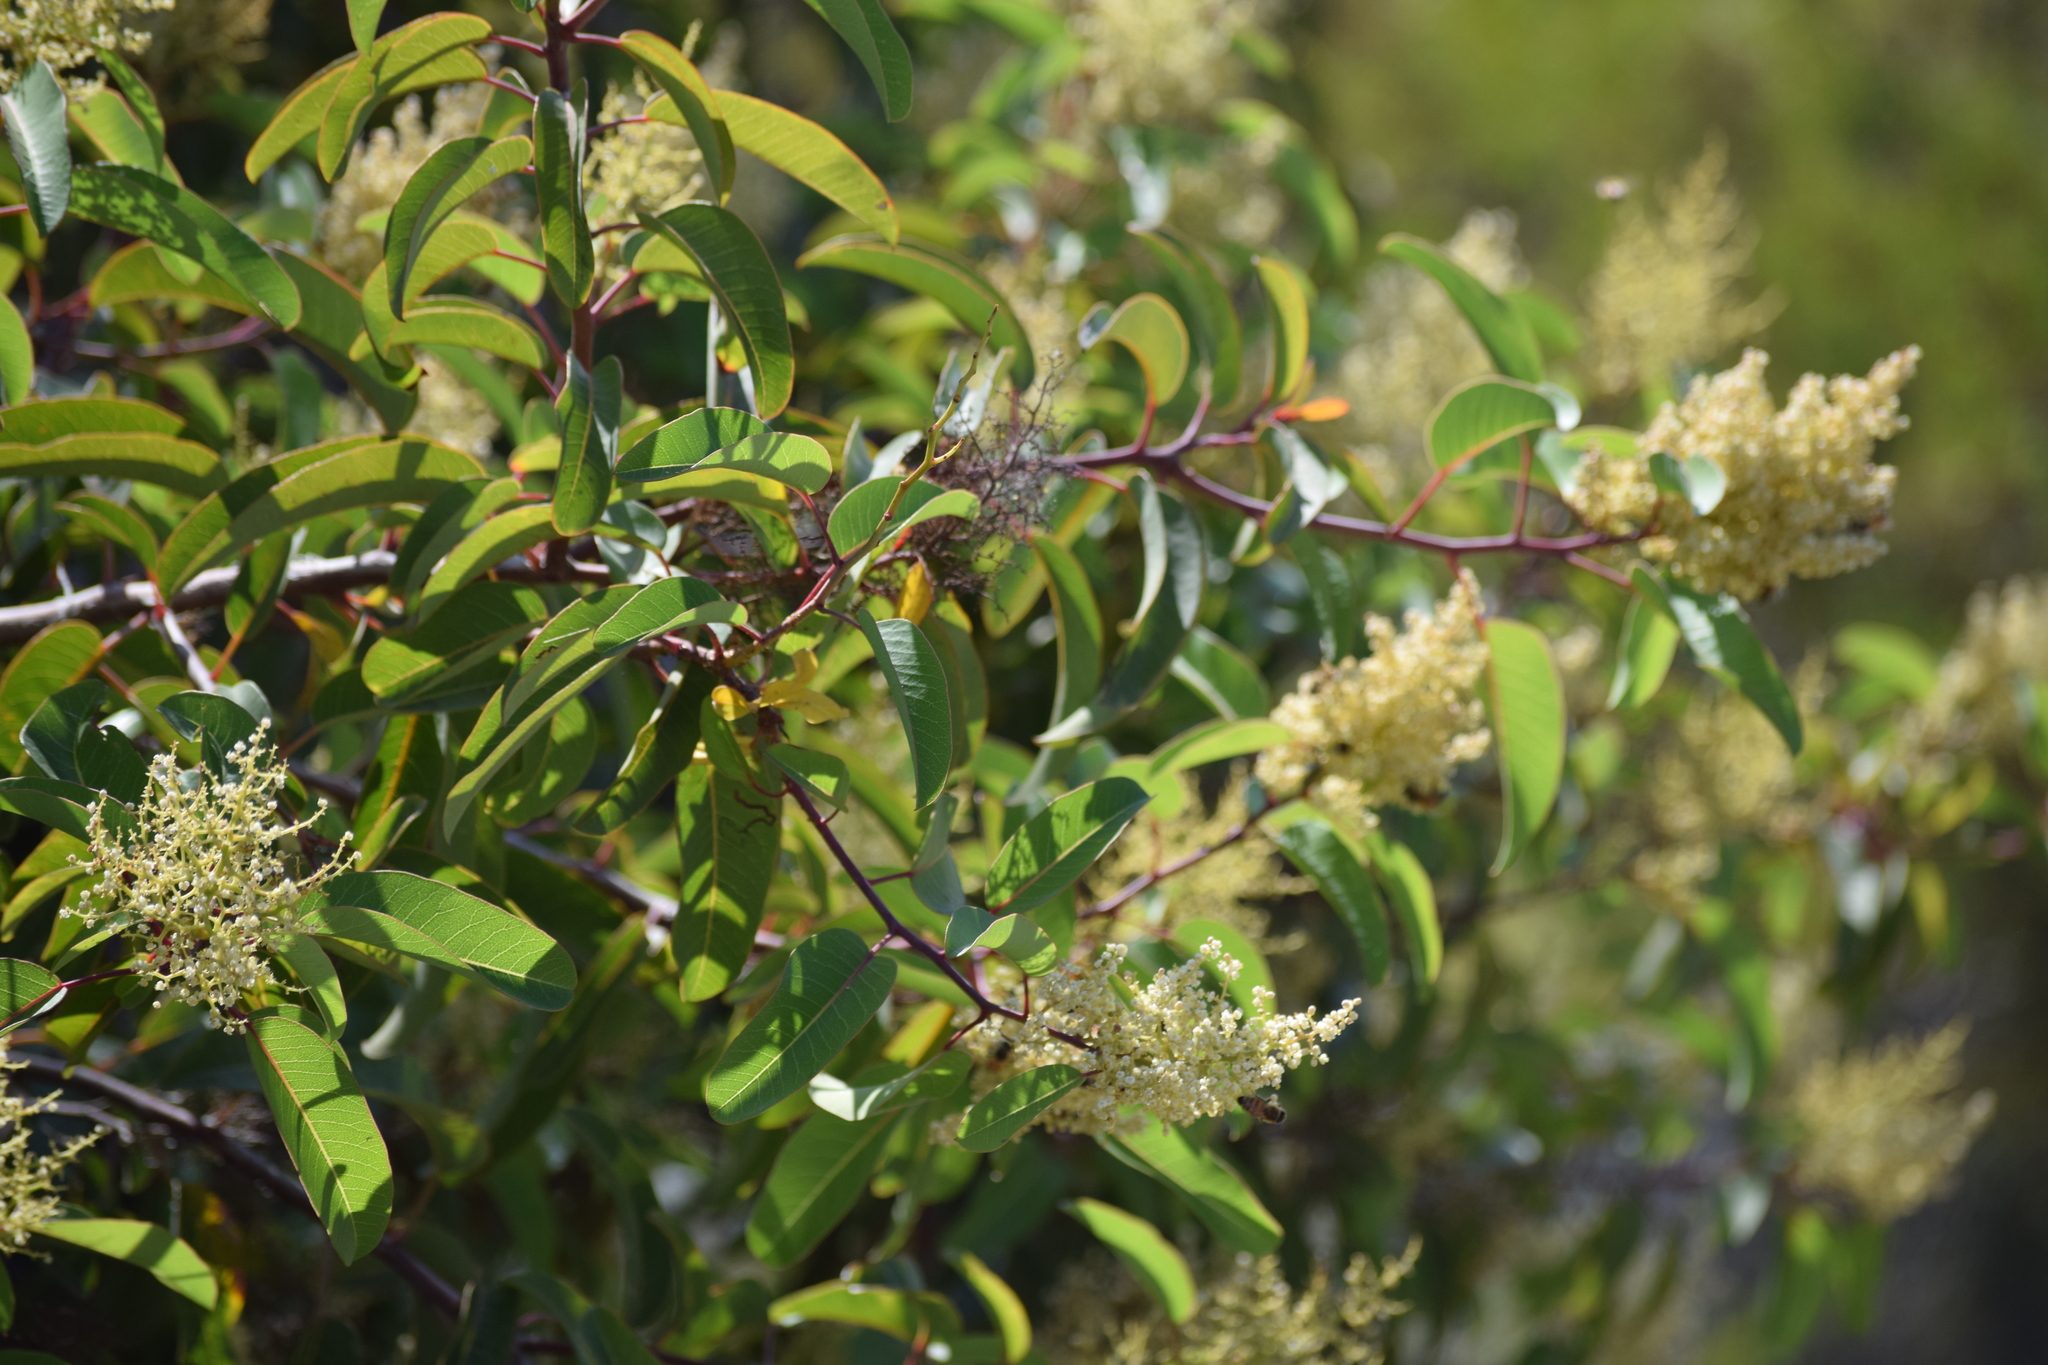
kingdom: Plantae
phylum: Tracheophyta
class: Magnoliopsida
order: Sapindales
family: Anacardiaceae
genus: Malosma
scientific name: Malosma laurina
